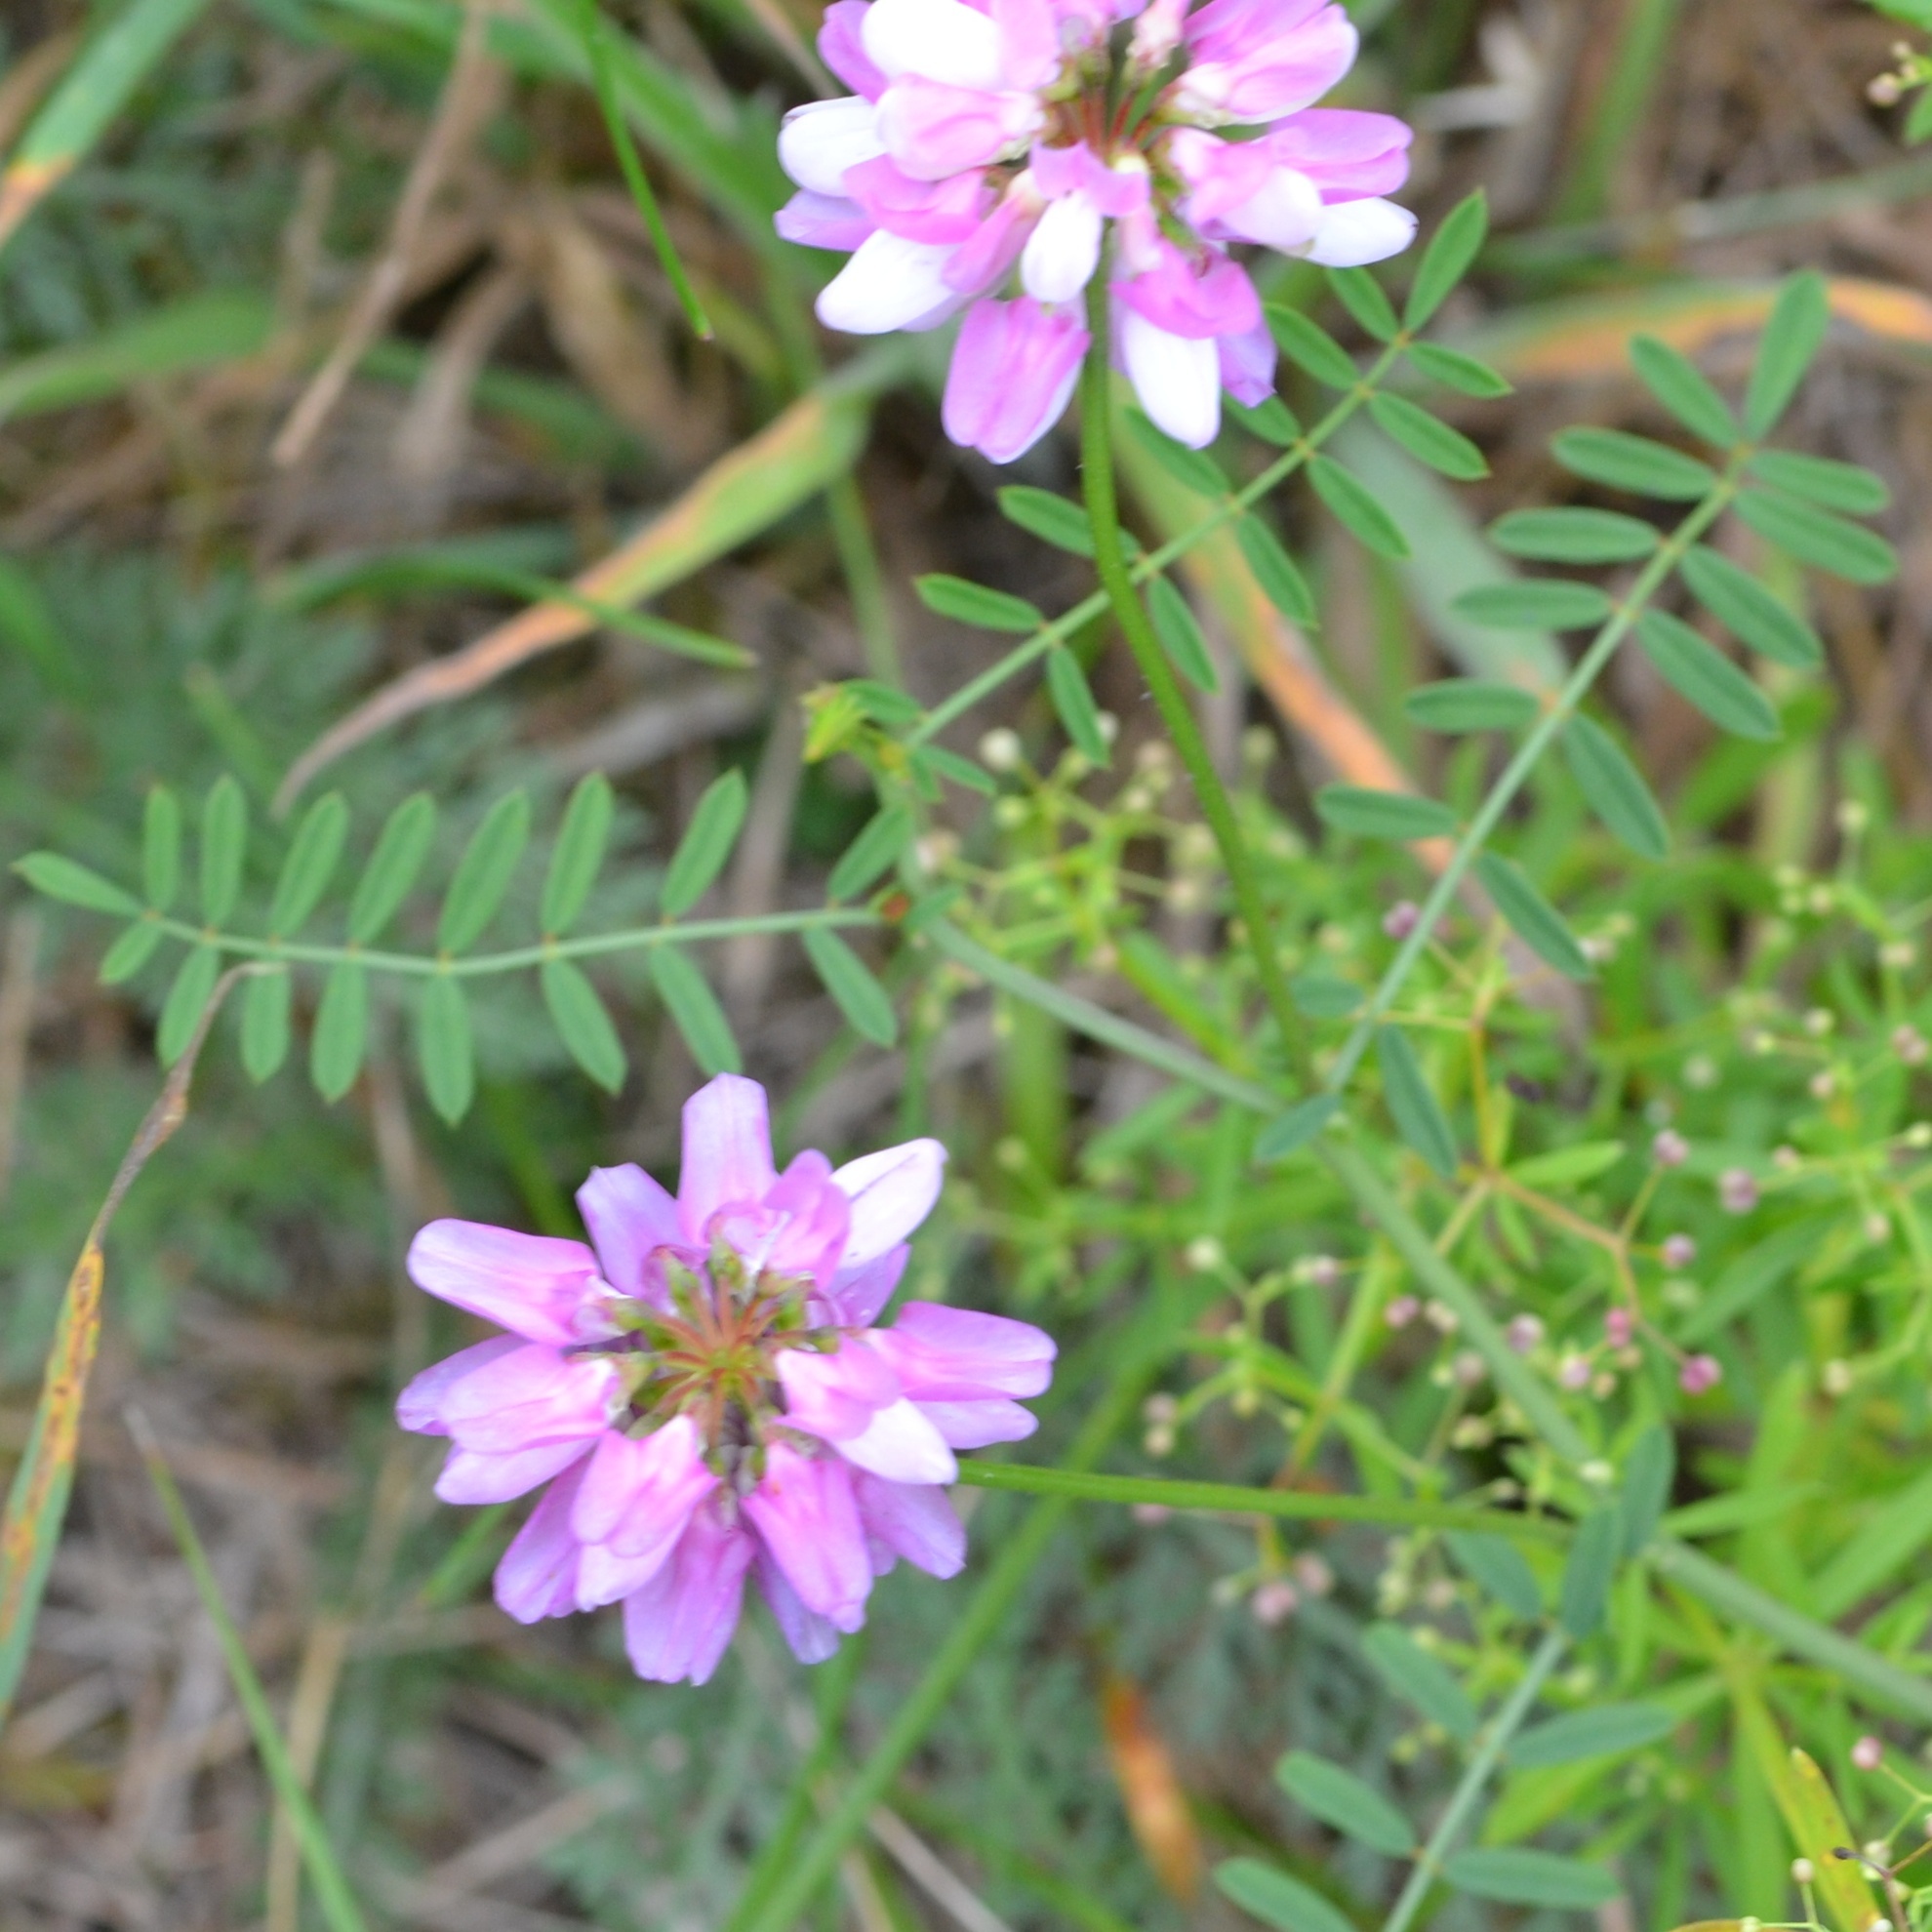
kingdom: Plantae
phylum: Tracheophyta
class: Magnoliopsida
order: Fabales
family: Fabaceae
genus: Coronilla
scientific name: Coronilla varia
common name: Crownvetch
